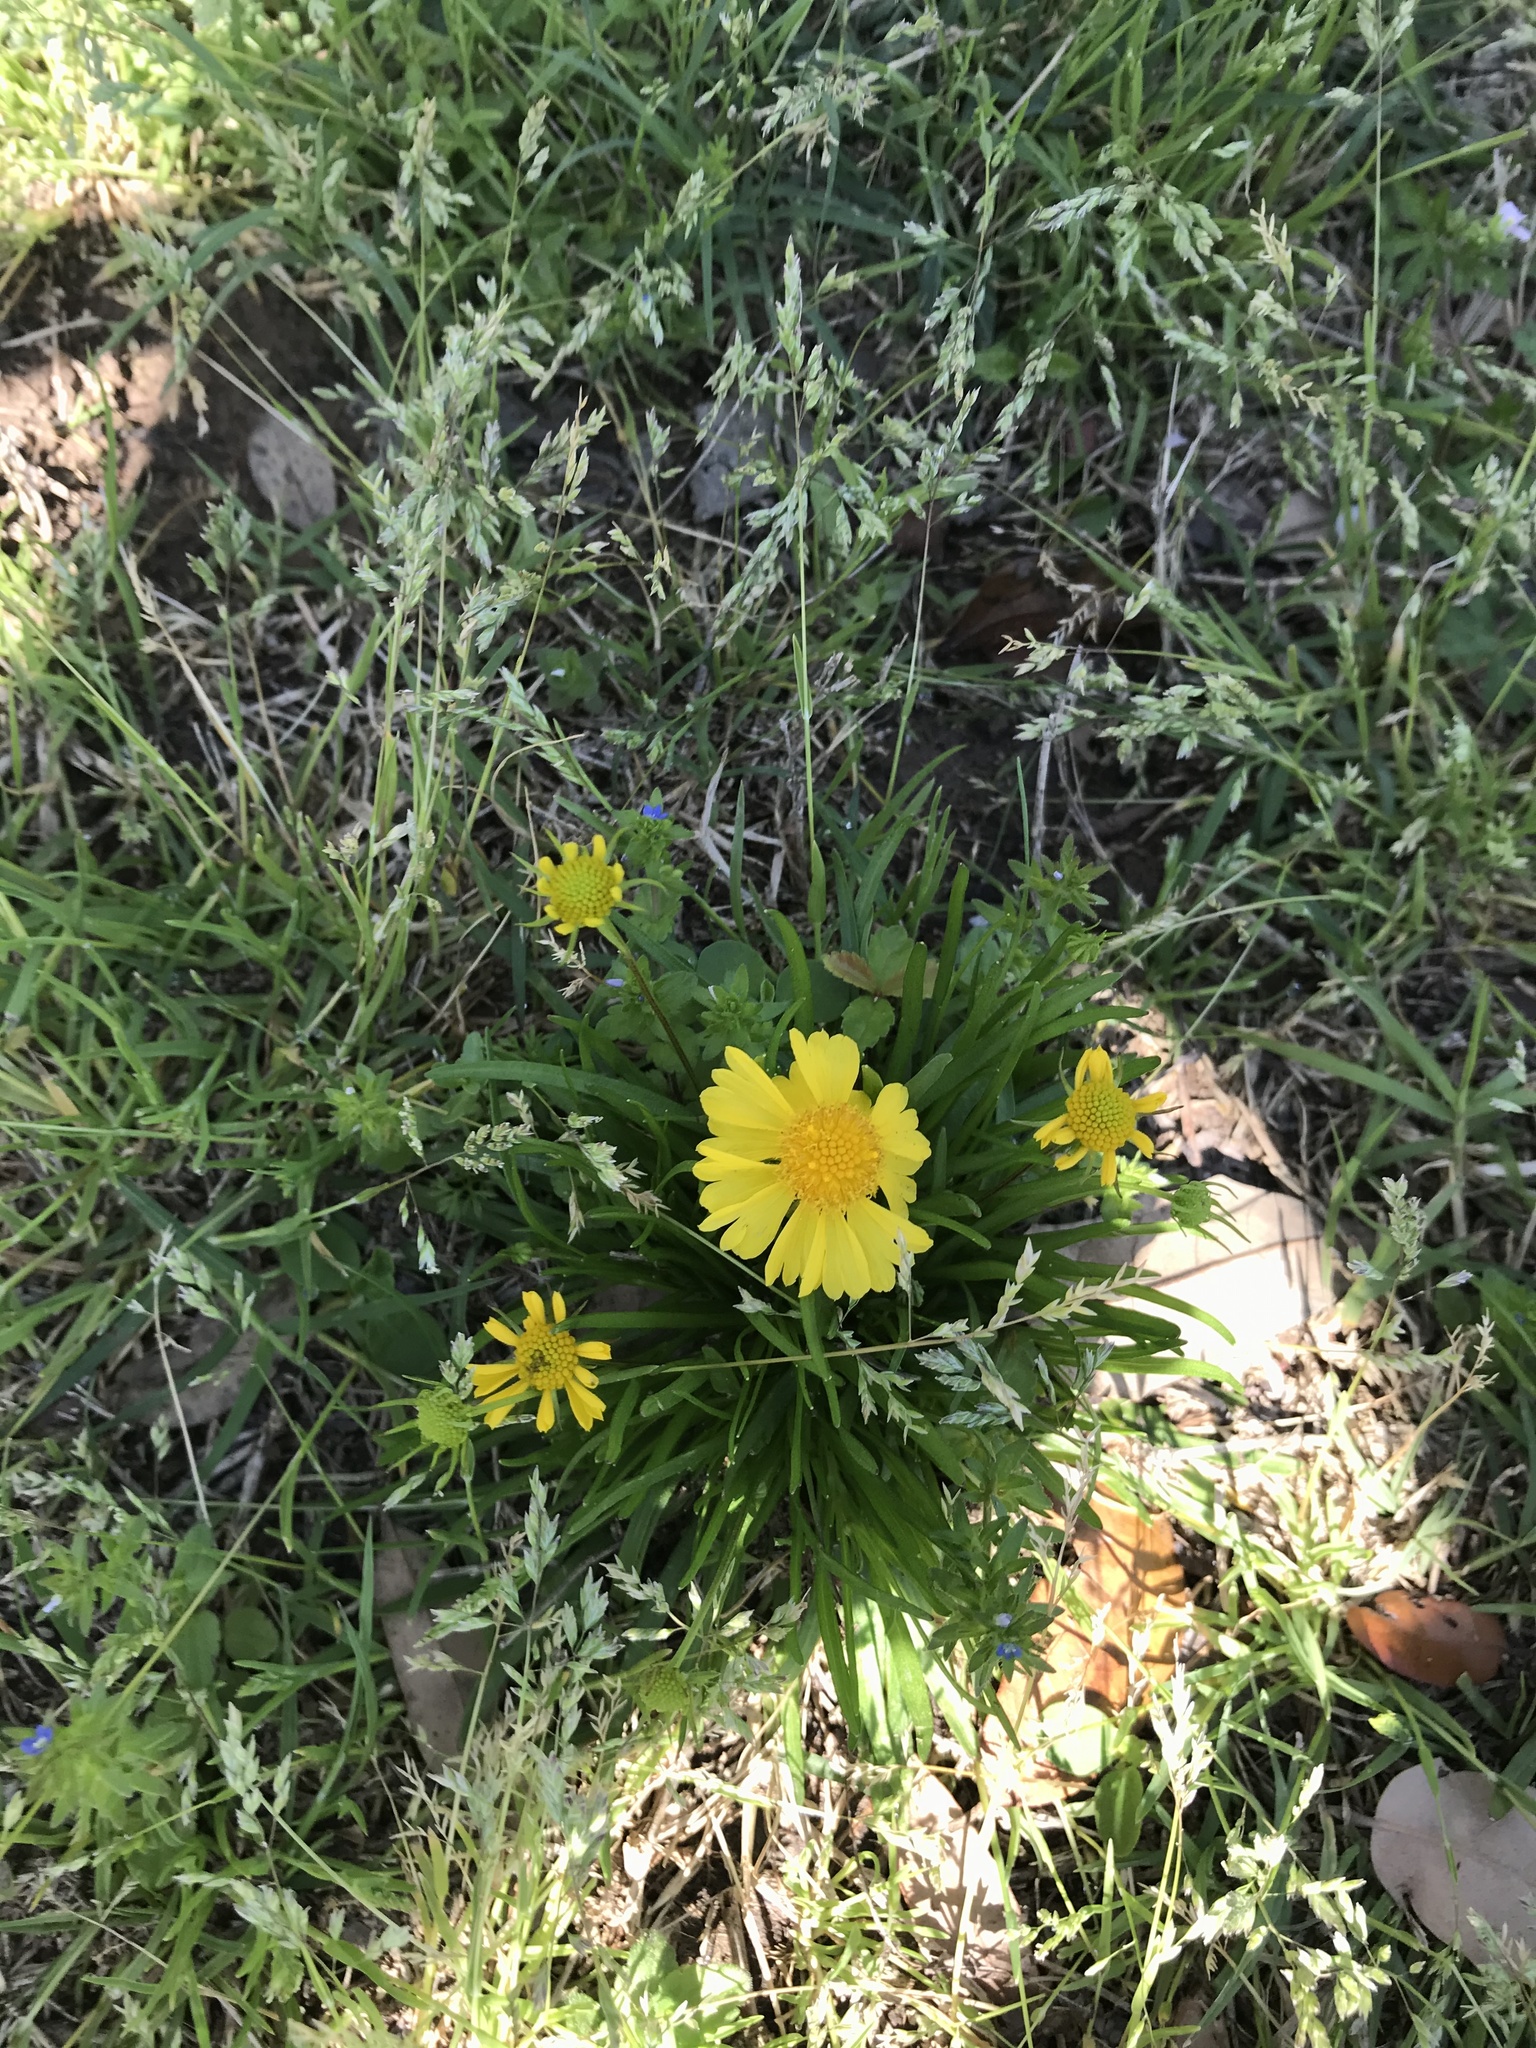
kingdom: Plantae
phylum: Tracheophyta
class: Magnoliopsida
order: Asterales
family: Asteraceae
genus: Helenium
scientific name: Helenium amarum
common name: Bitter sneezeweed
